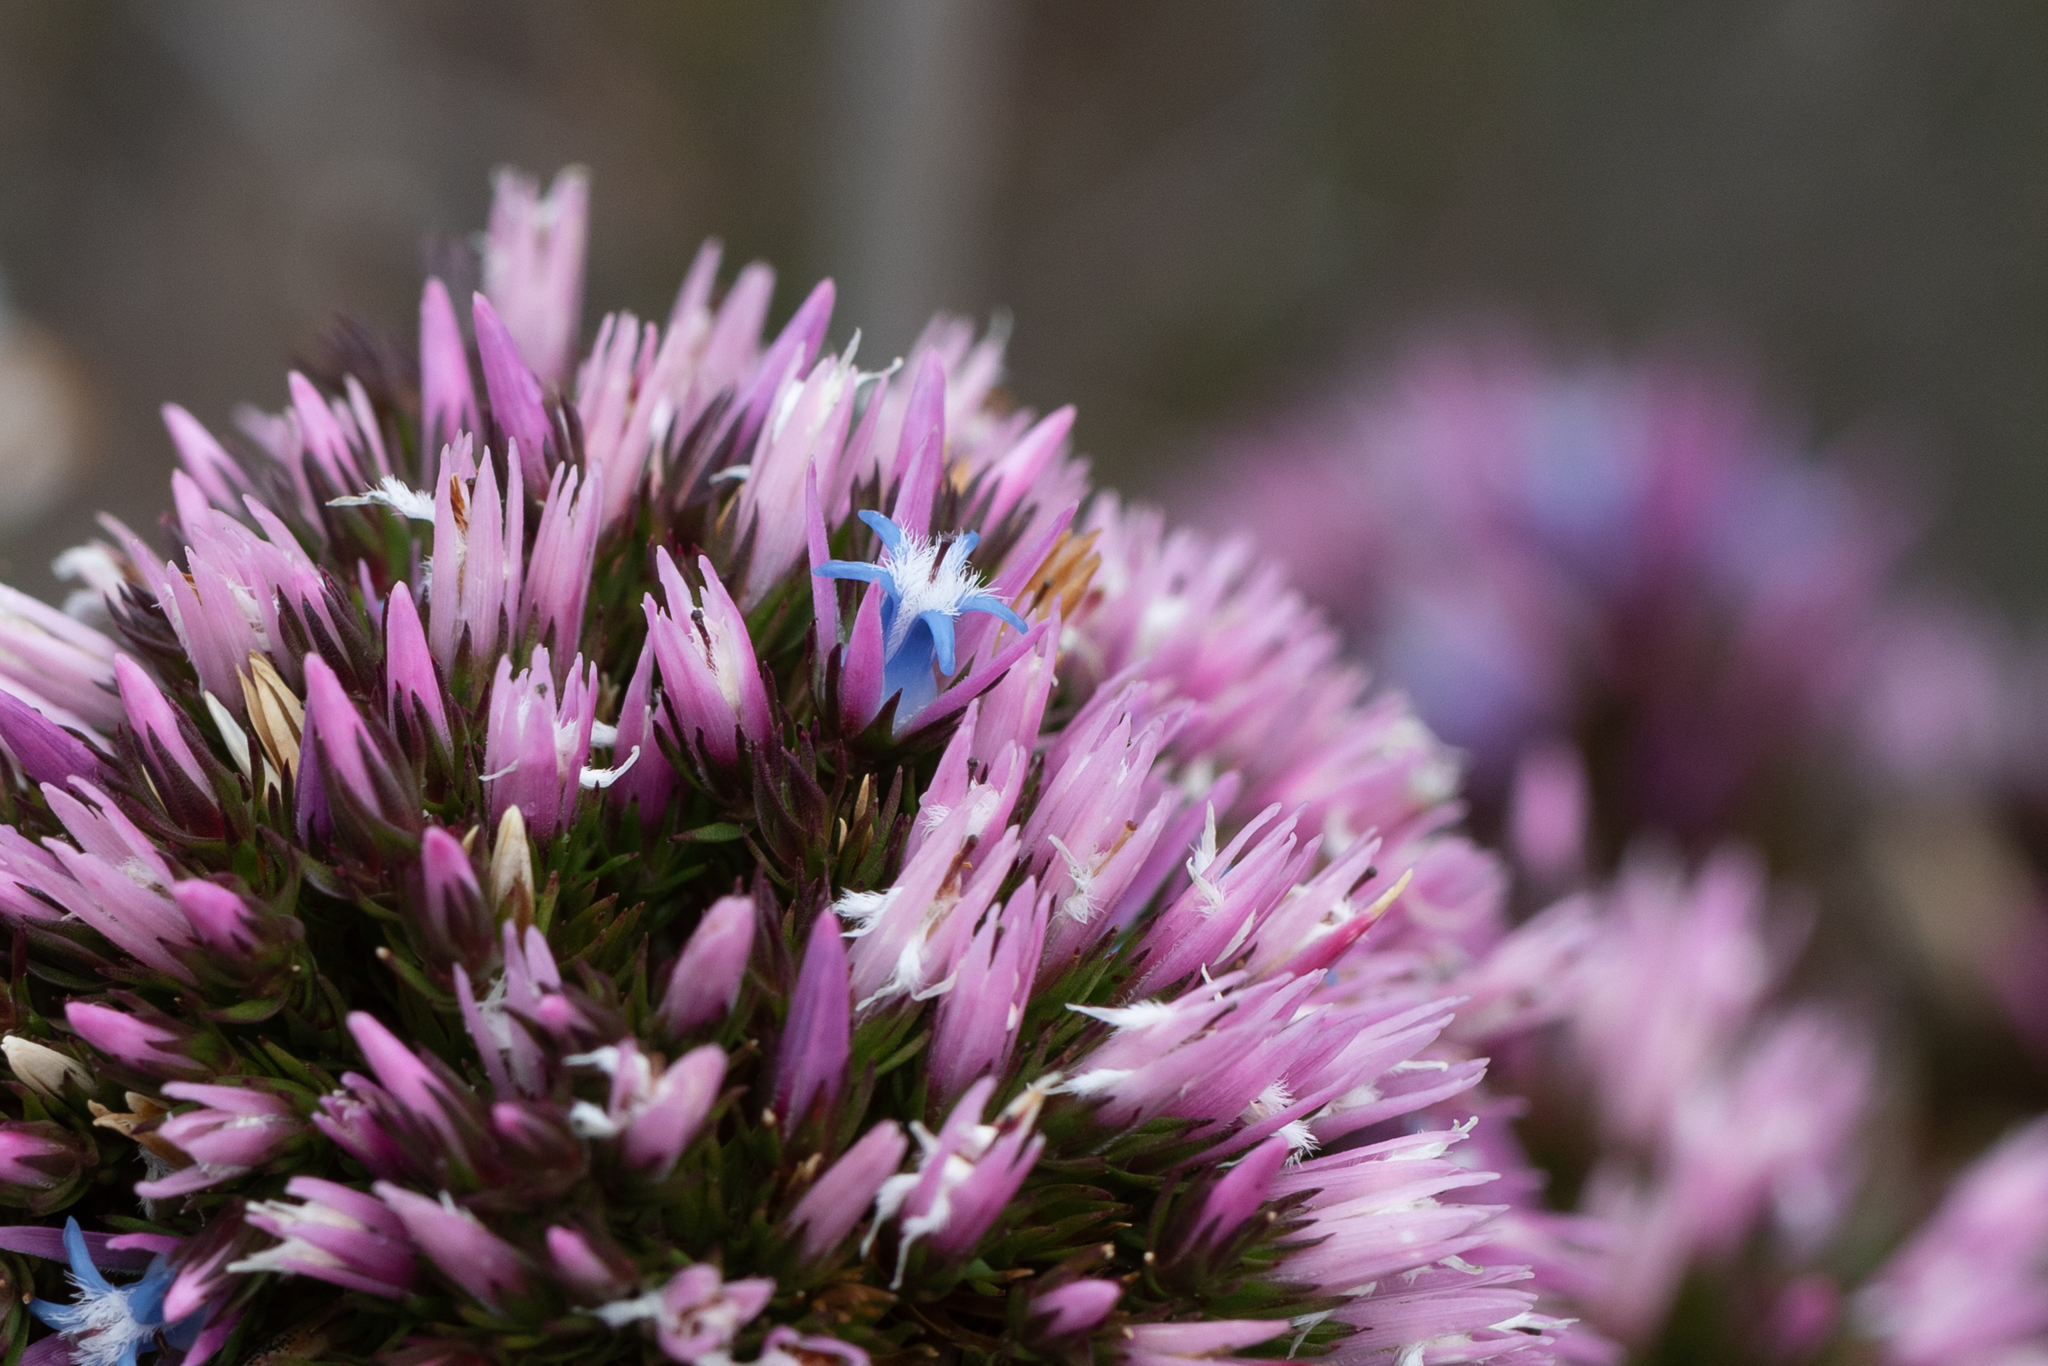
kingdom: Plantae
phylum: Tracheophyta
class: Magnoliopsida
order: Ericales
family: Ericaceae
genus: Andersonia
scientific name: Andersonia caerulea
